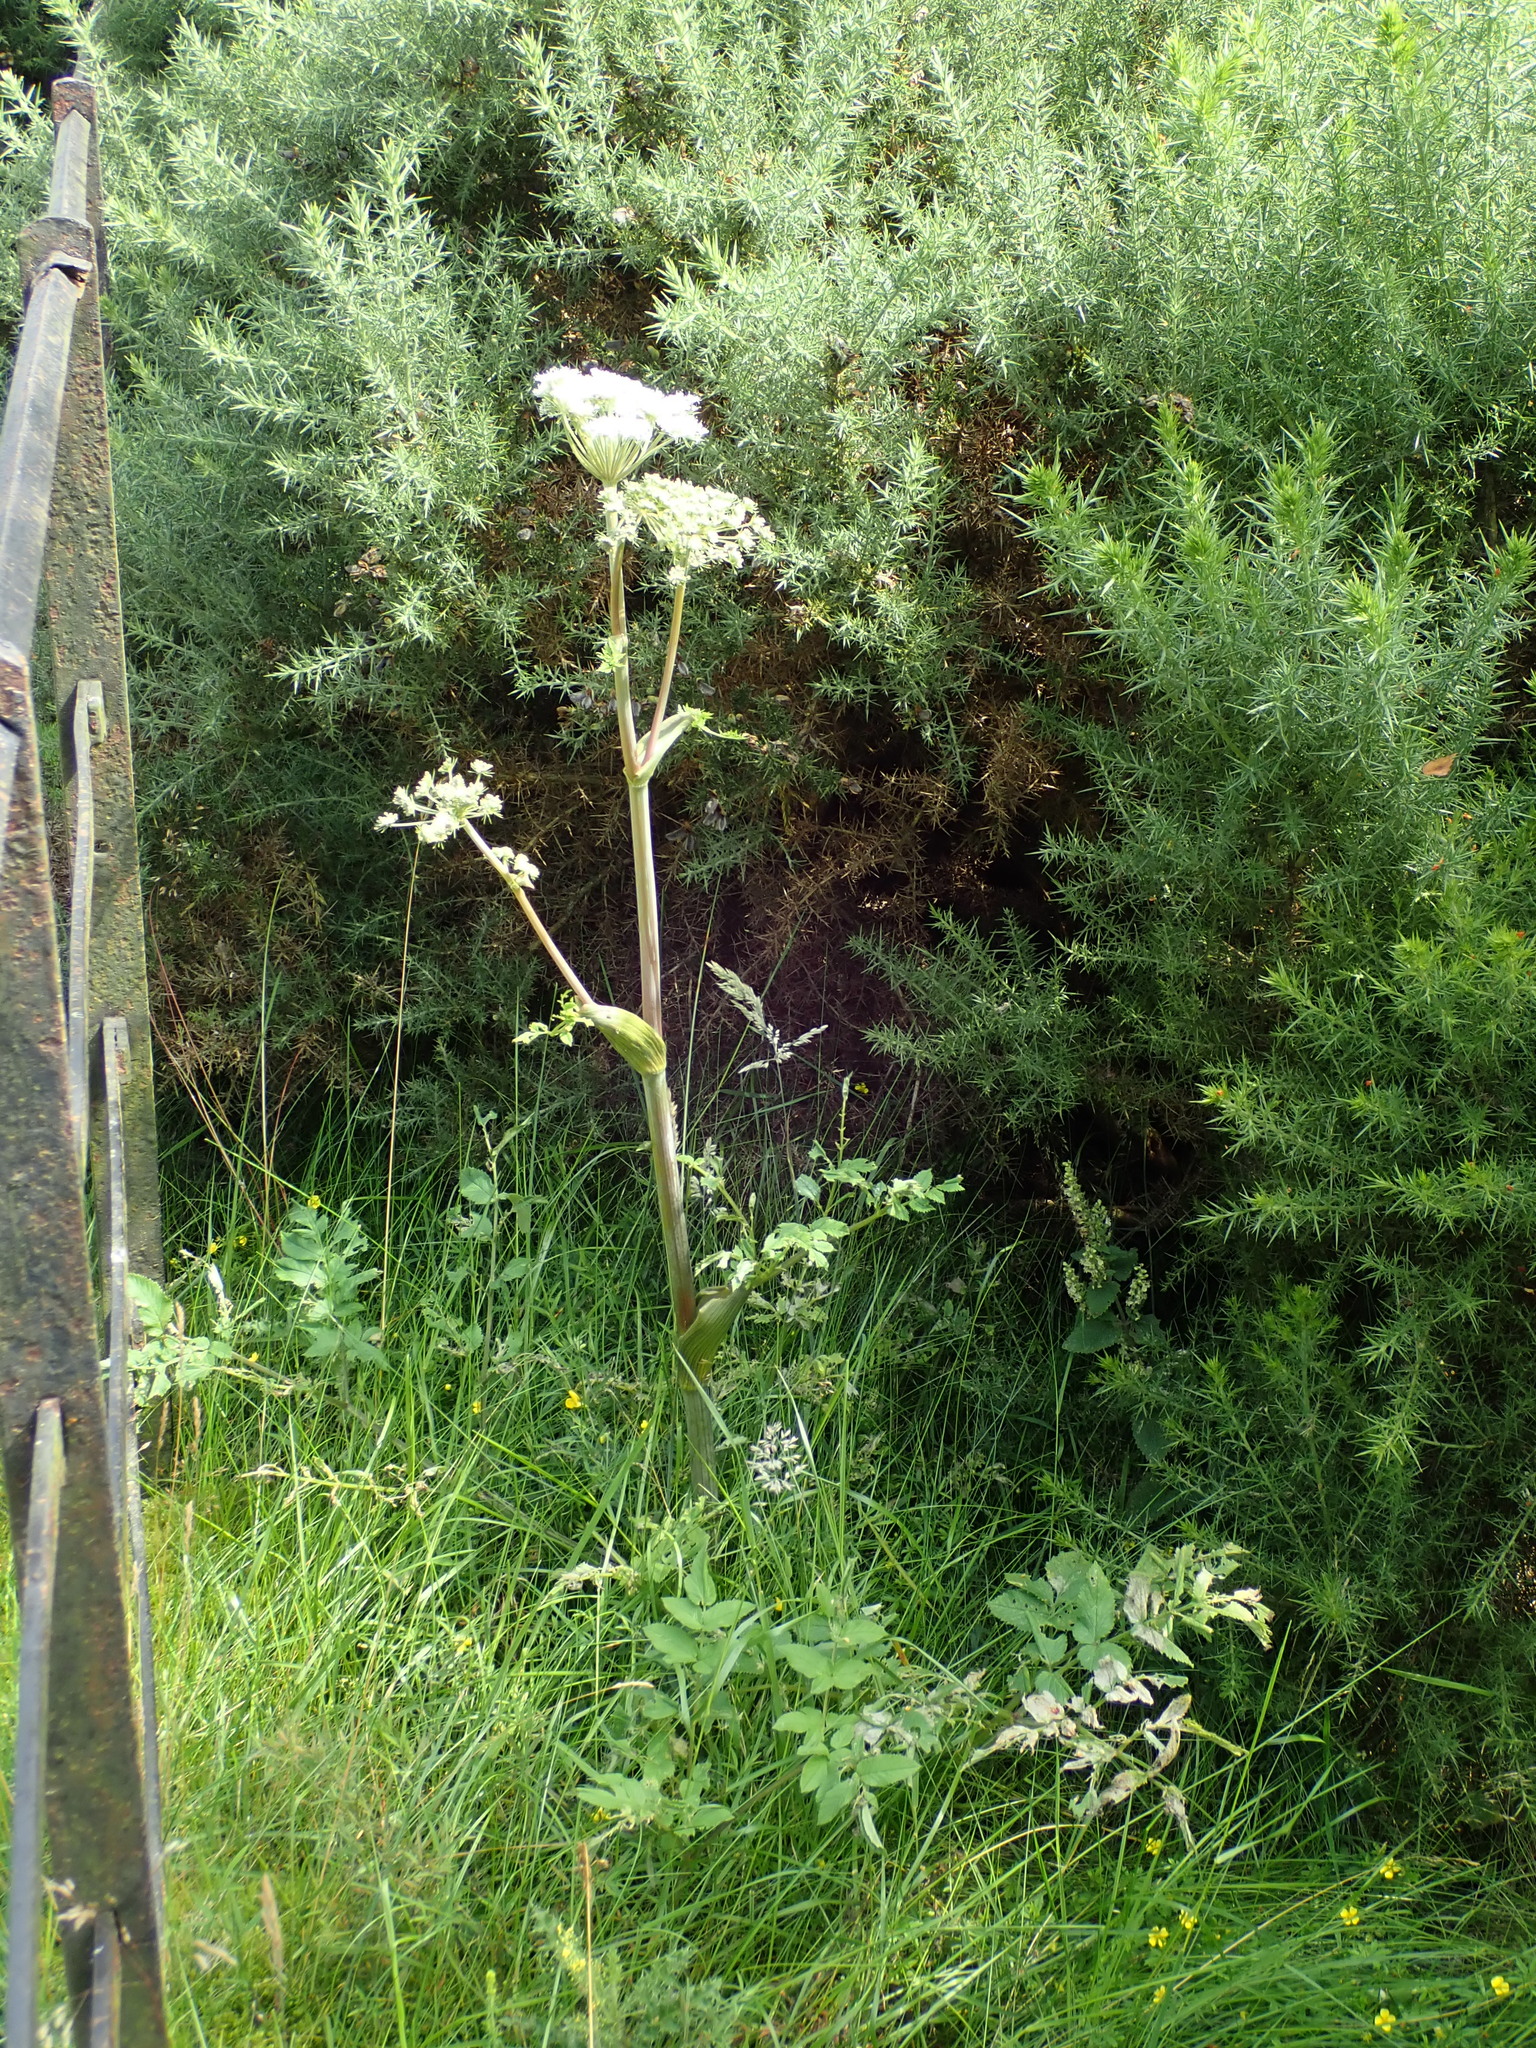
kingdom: Plantae
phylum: Tracheophyta
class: Magnoliopsida
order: Apiales
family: Apiaceae
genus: Angelica
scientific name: Angelica sylvestris
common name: Wild angelica
